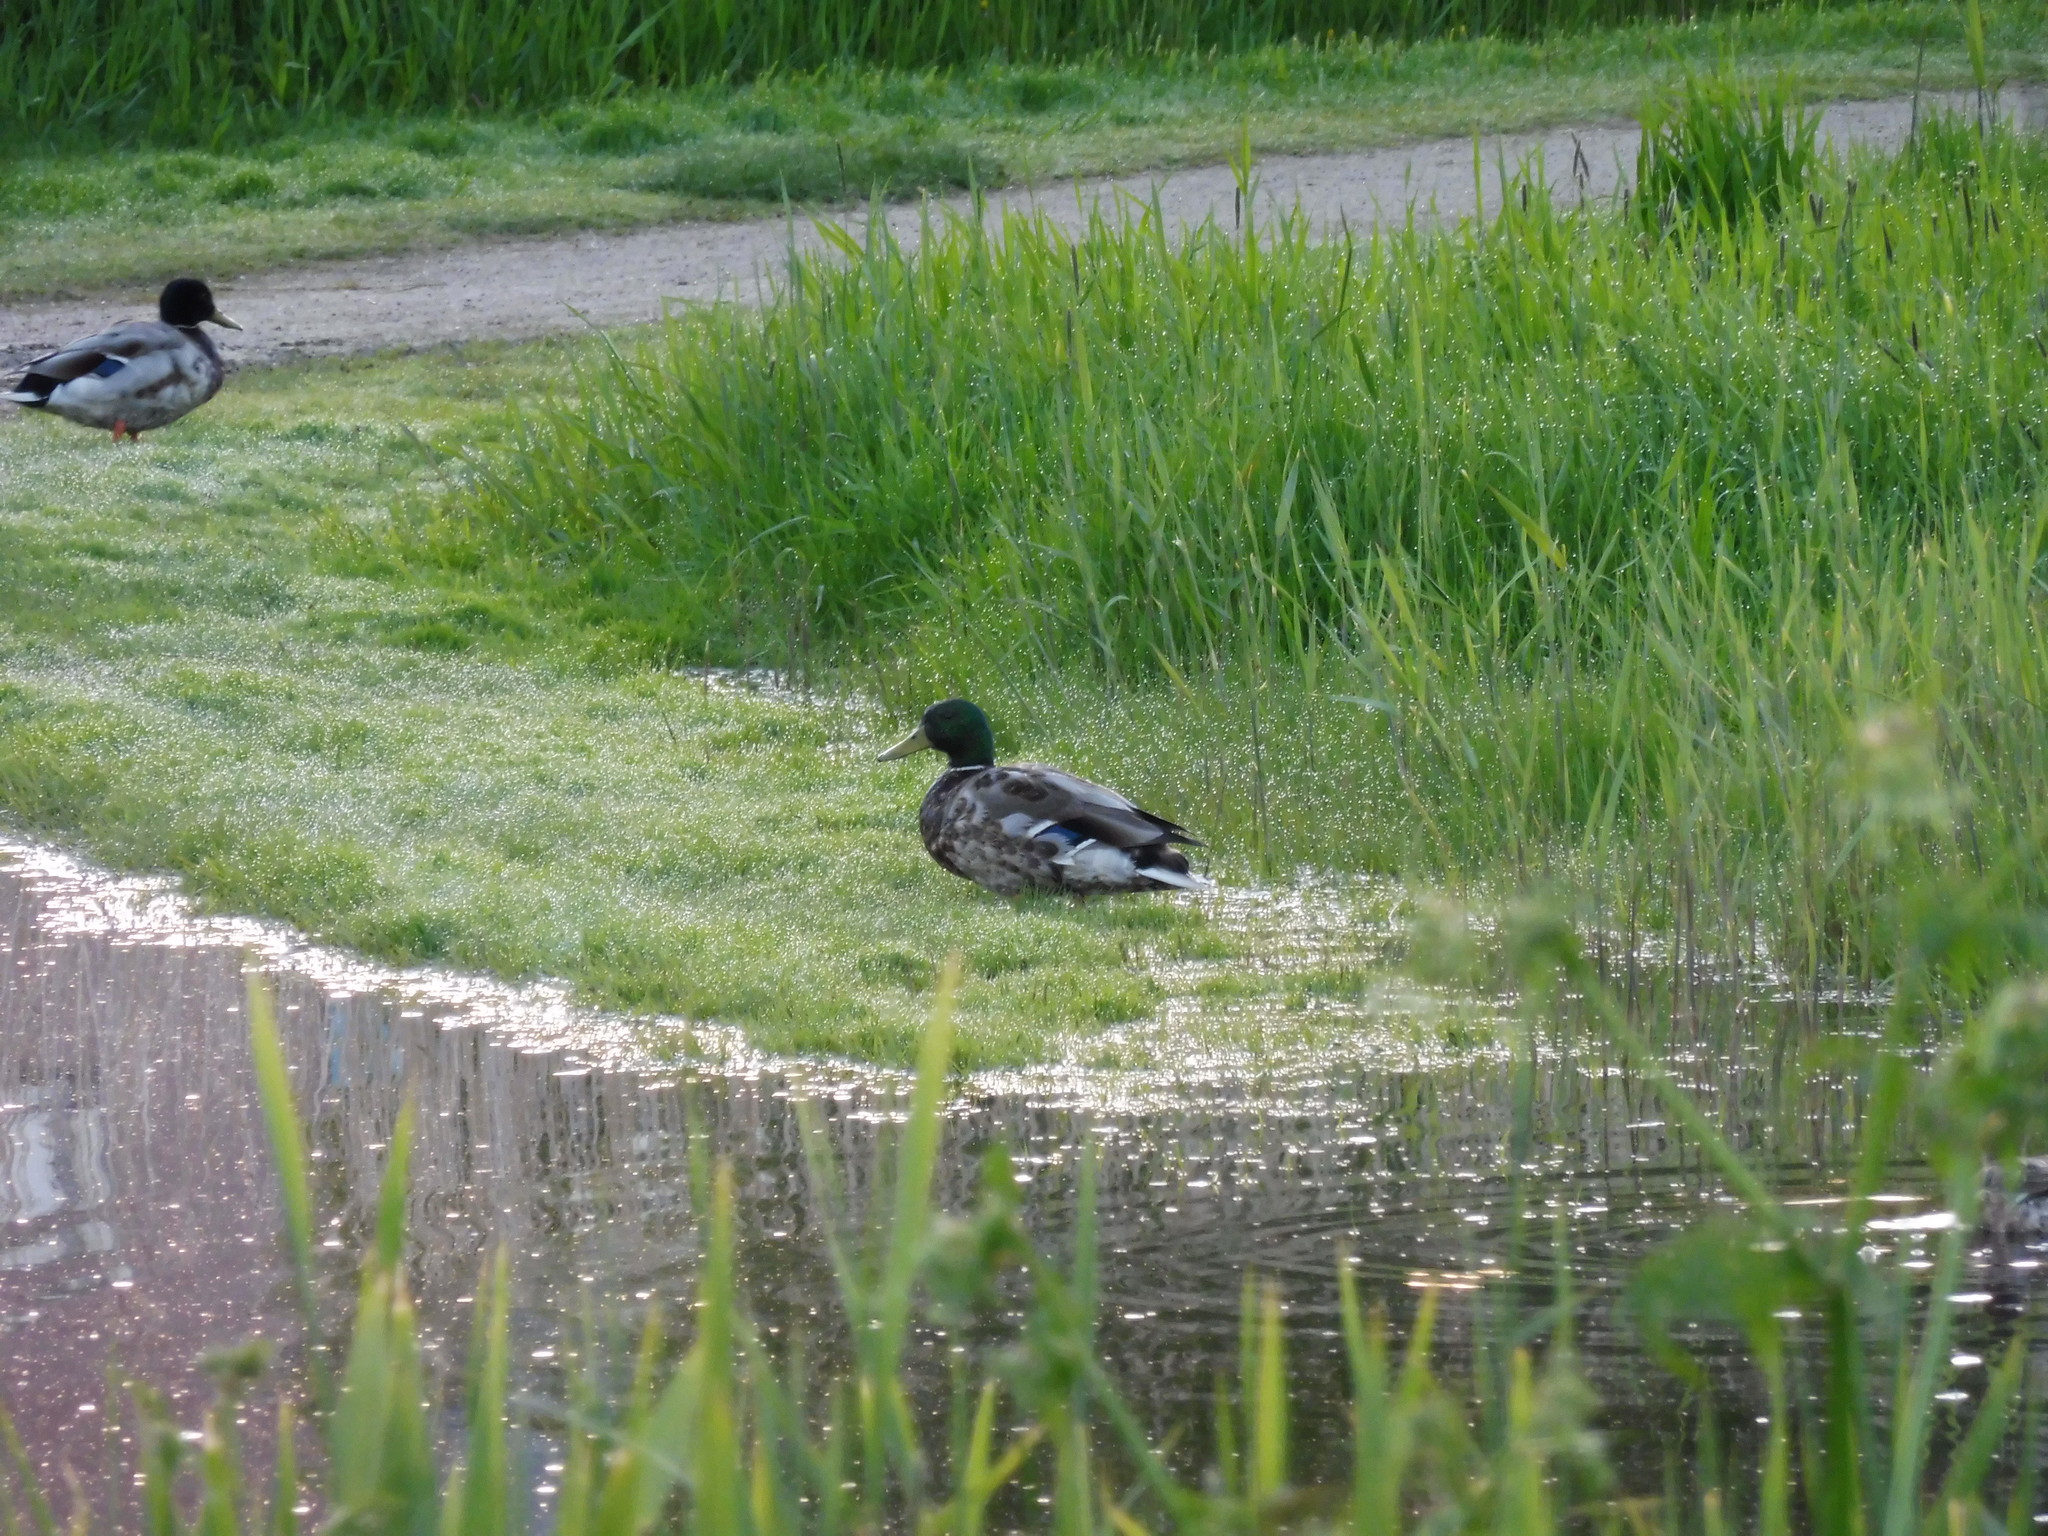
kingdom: Animalia
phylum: Chordata
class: Aves
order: Anseriformes
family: Anatidae
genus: Anas
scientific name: Anas platyrhynchos
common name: Mallard
